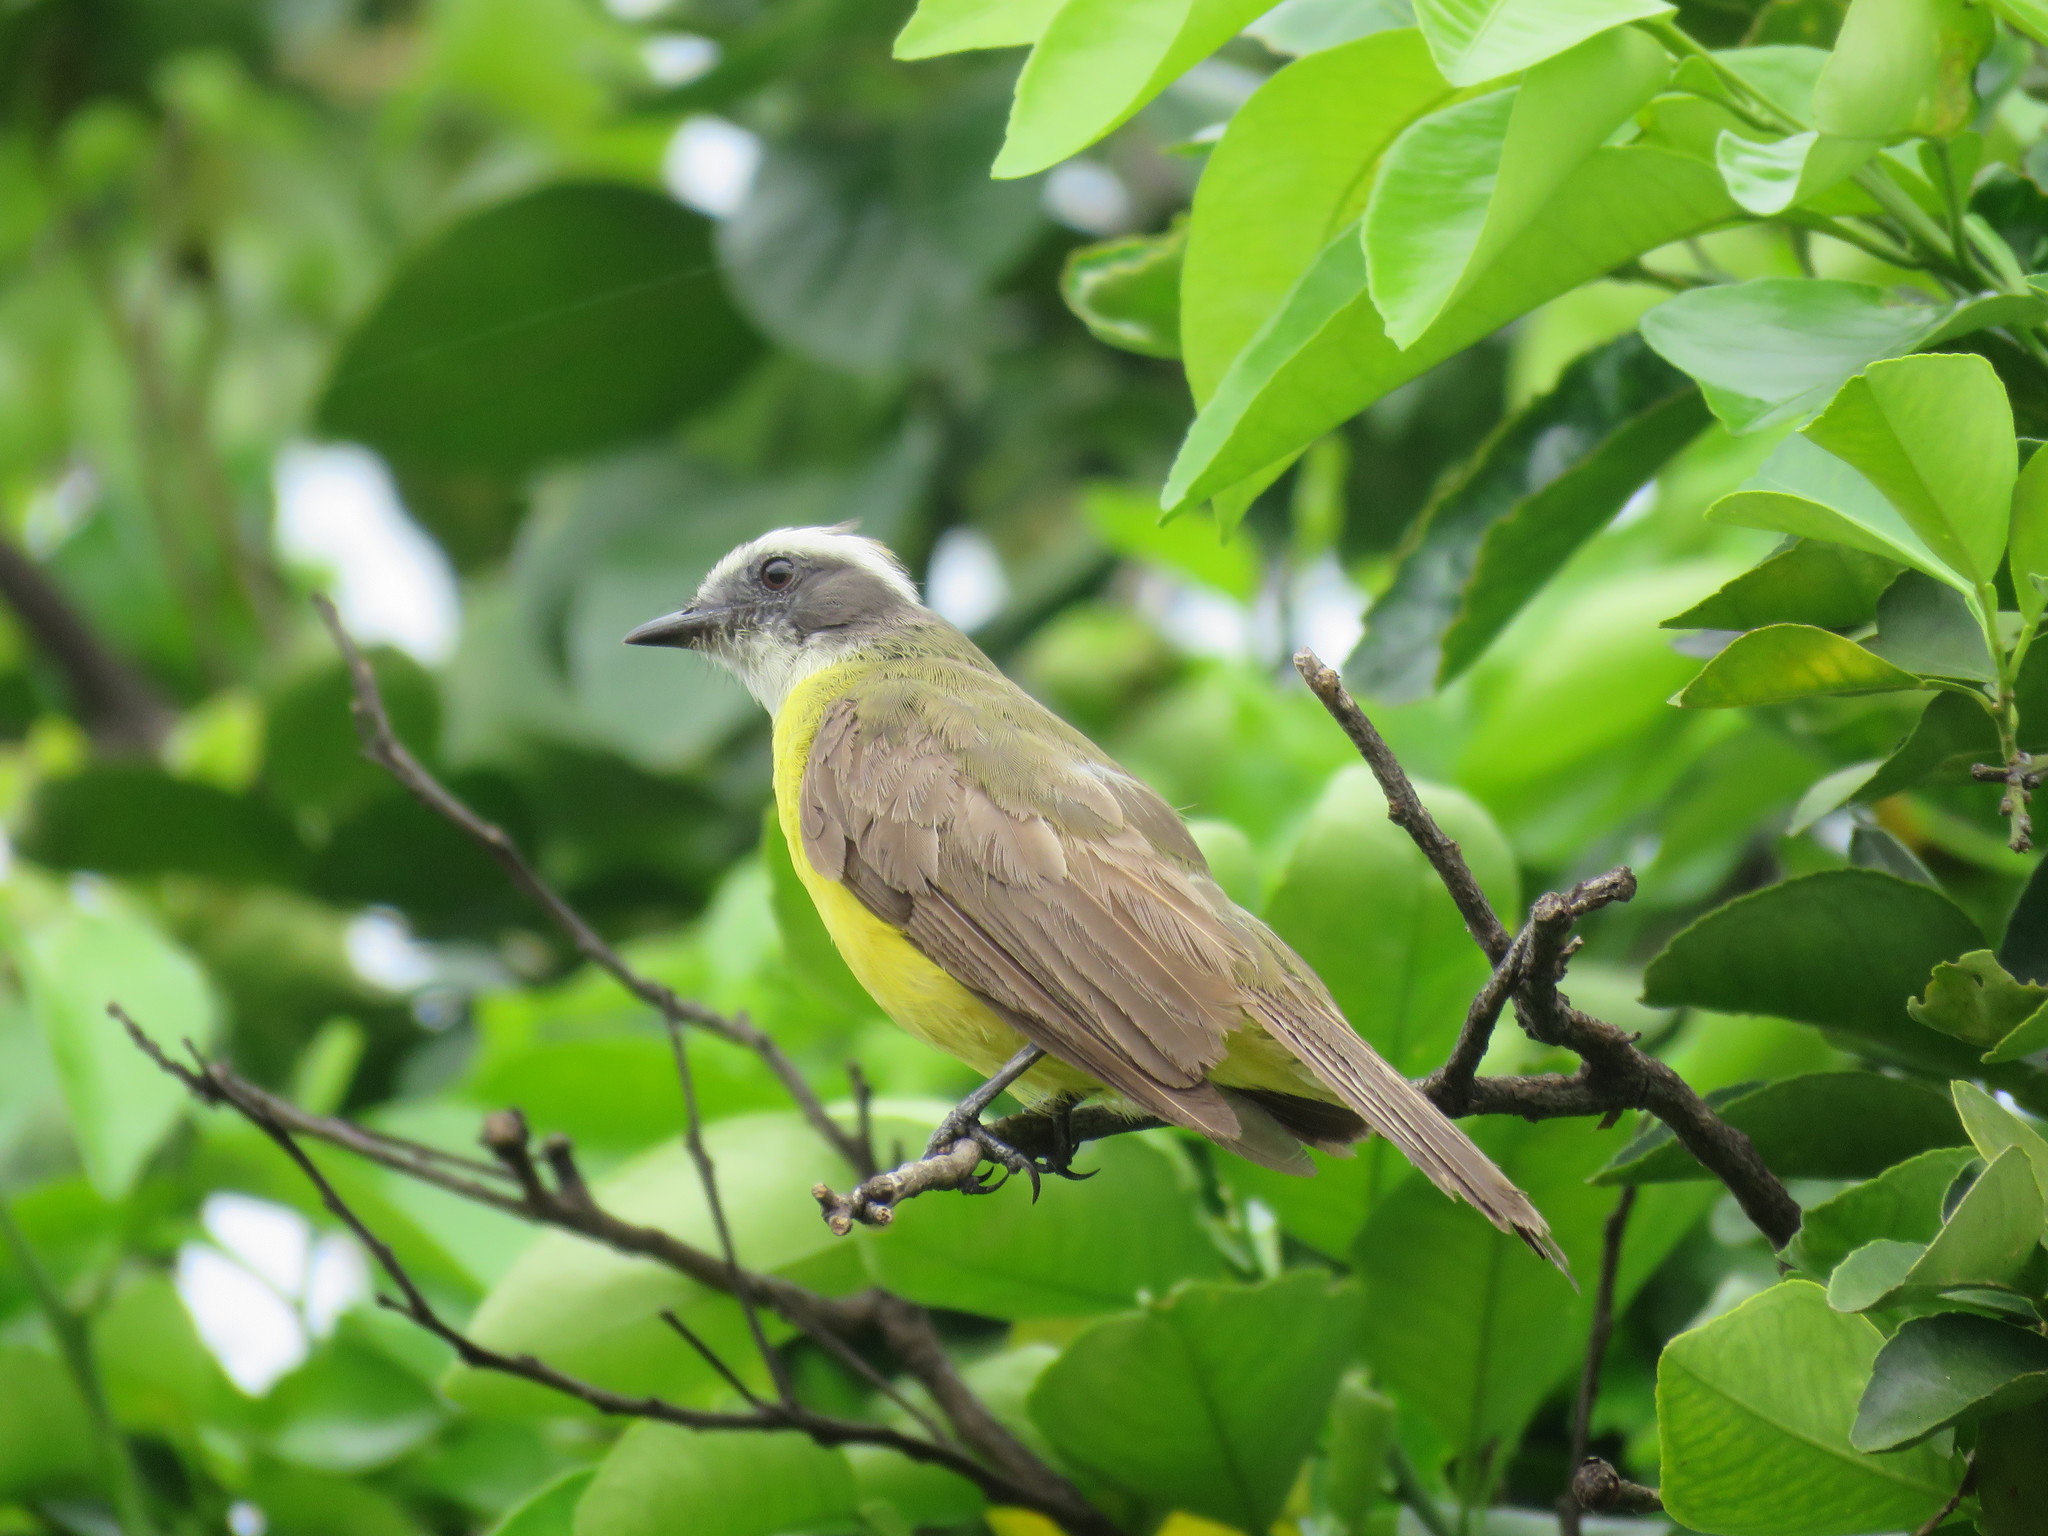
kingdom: Animalia
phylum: Chordata
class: Aves
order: Passeriformes
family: Tyrannidae
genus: Myiozetetes
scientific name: Myiozetetes similis
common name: Social flycatcher
